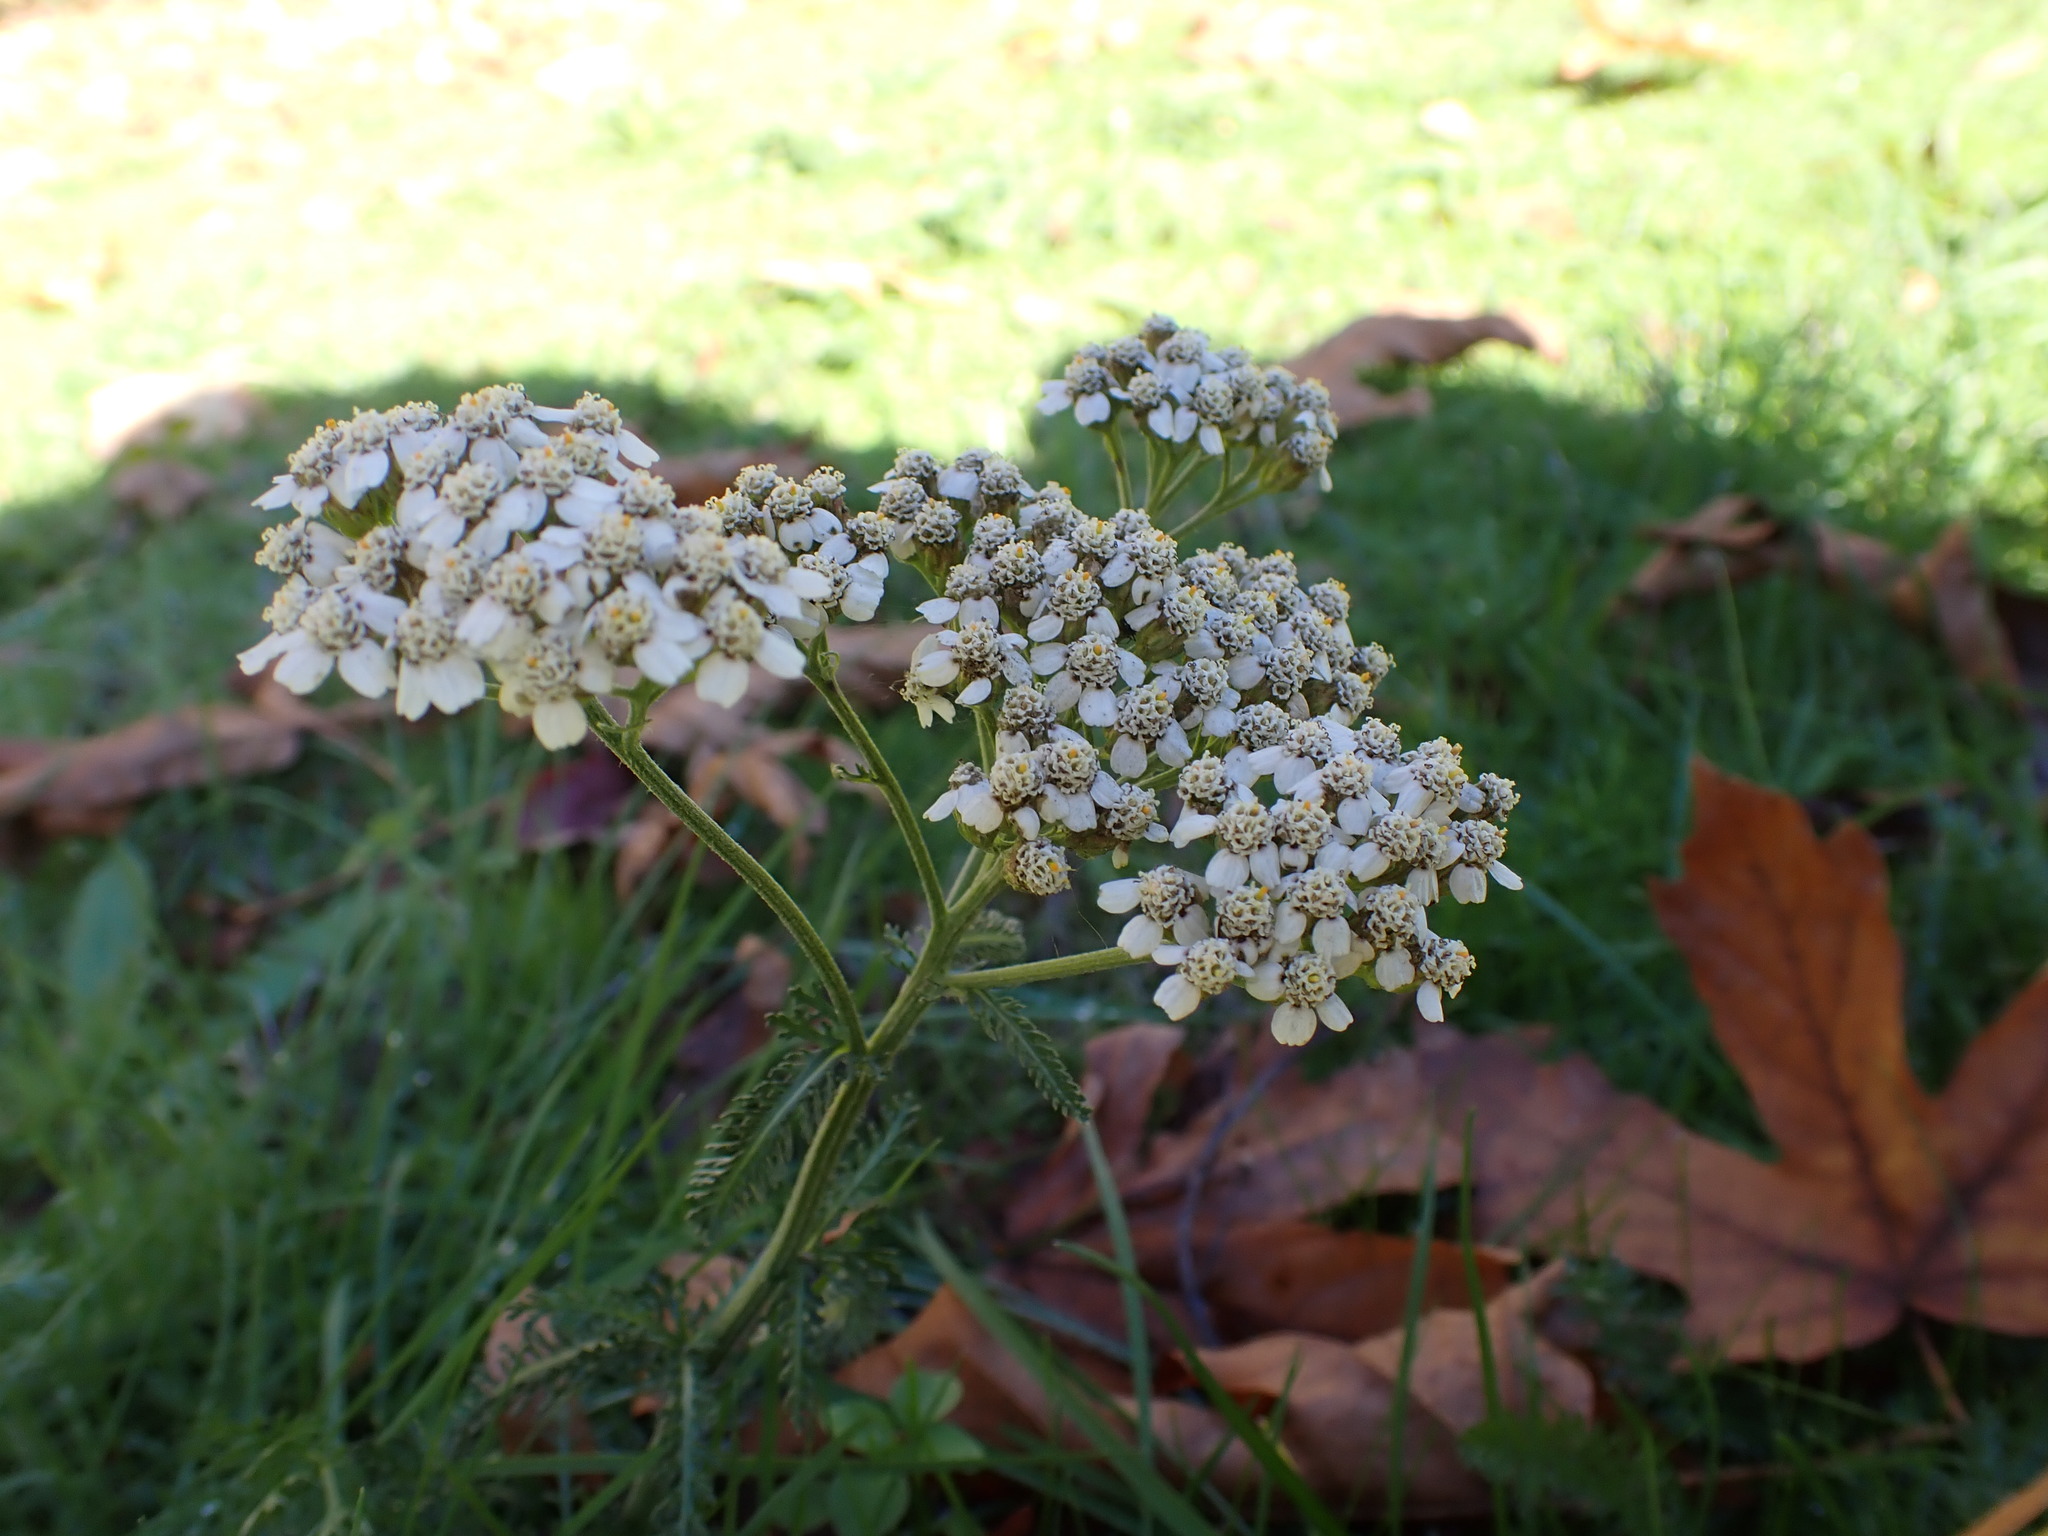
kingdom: Plantae
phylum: Tracheophyta
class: Magnoliopsida
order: Asterales
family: Asteraceae
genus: Achillea
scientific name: Achillea millefolium
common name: Yarrow
